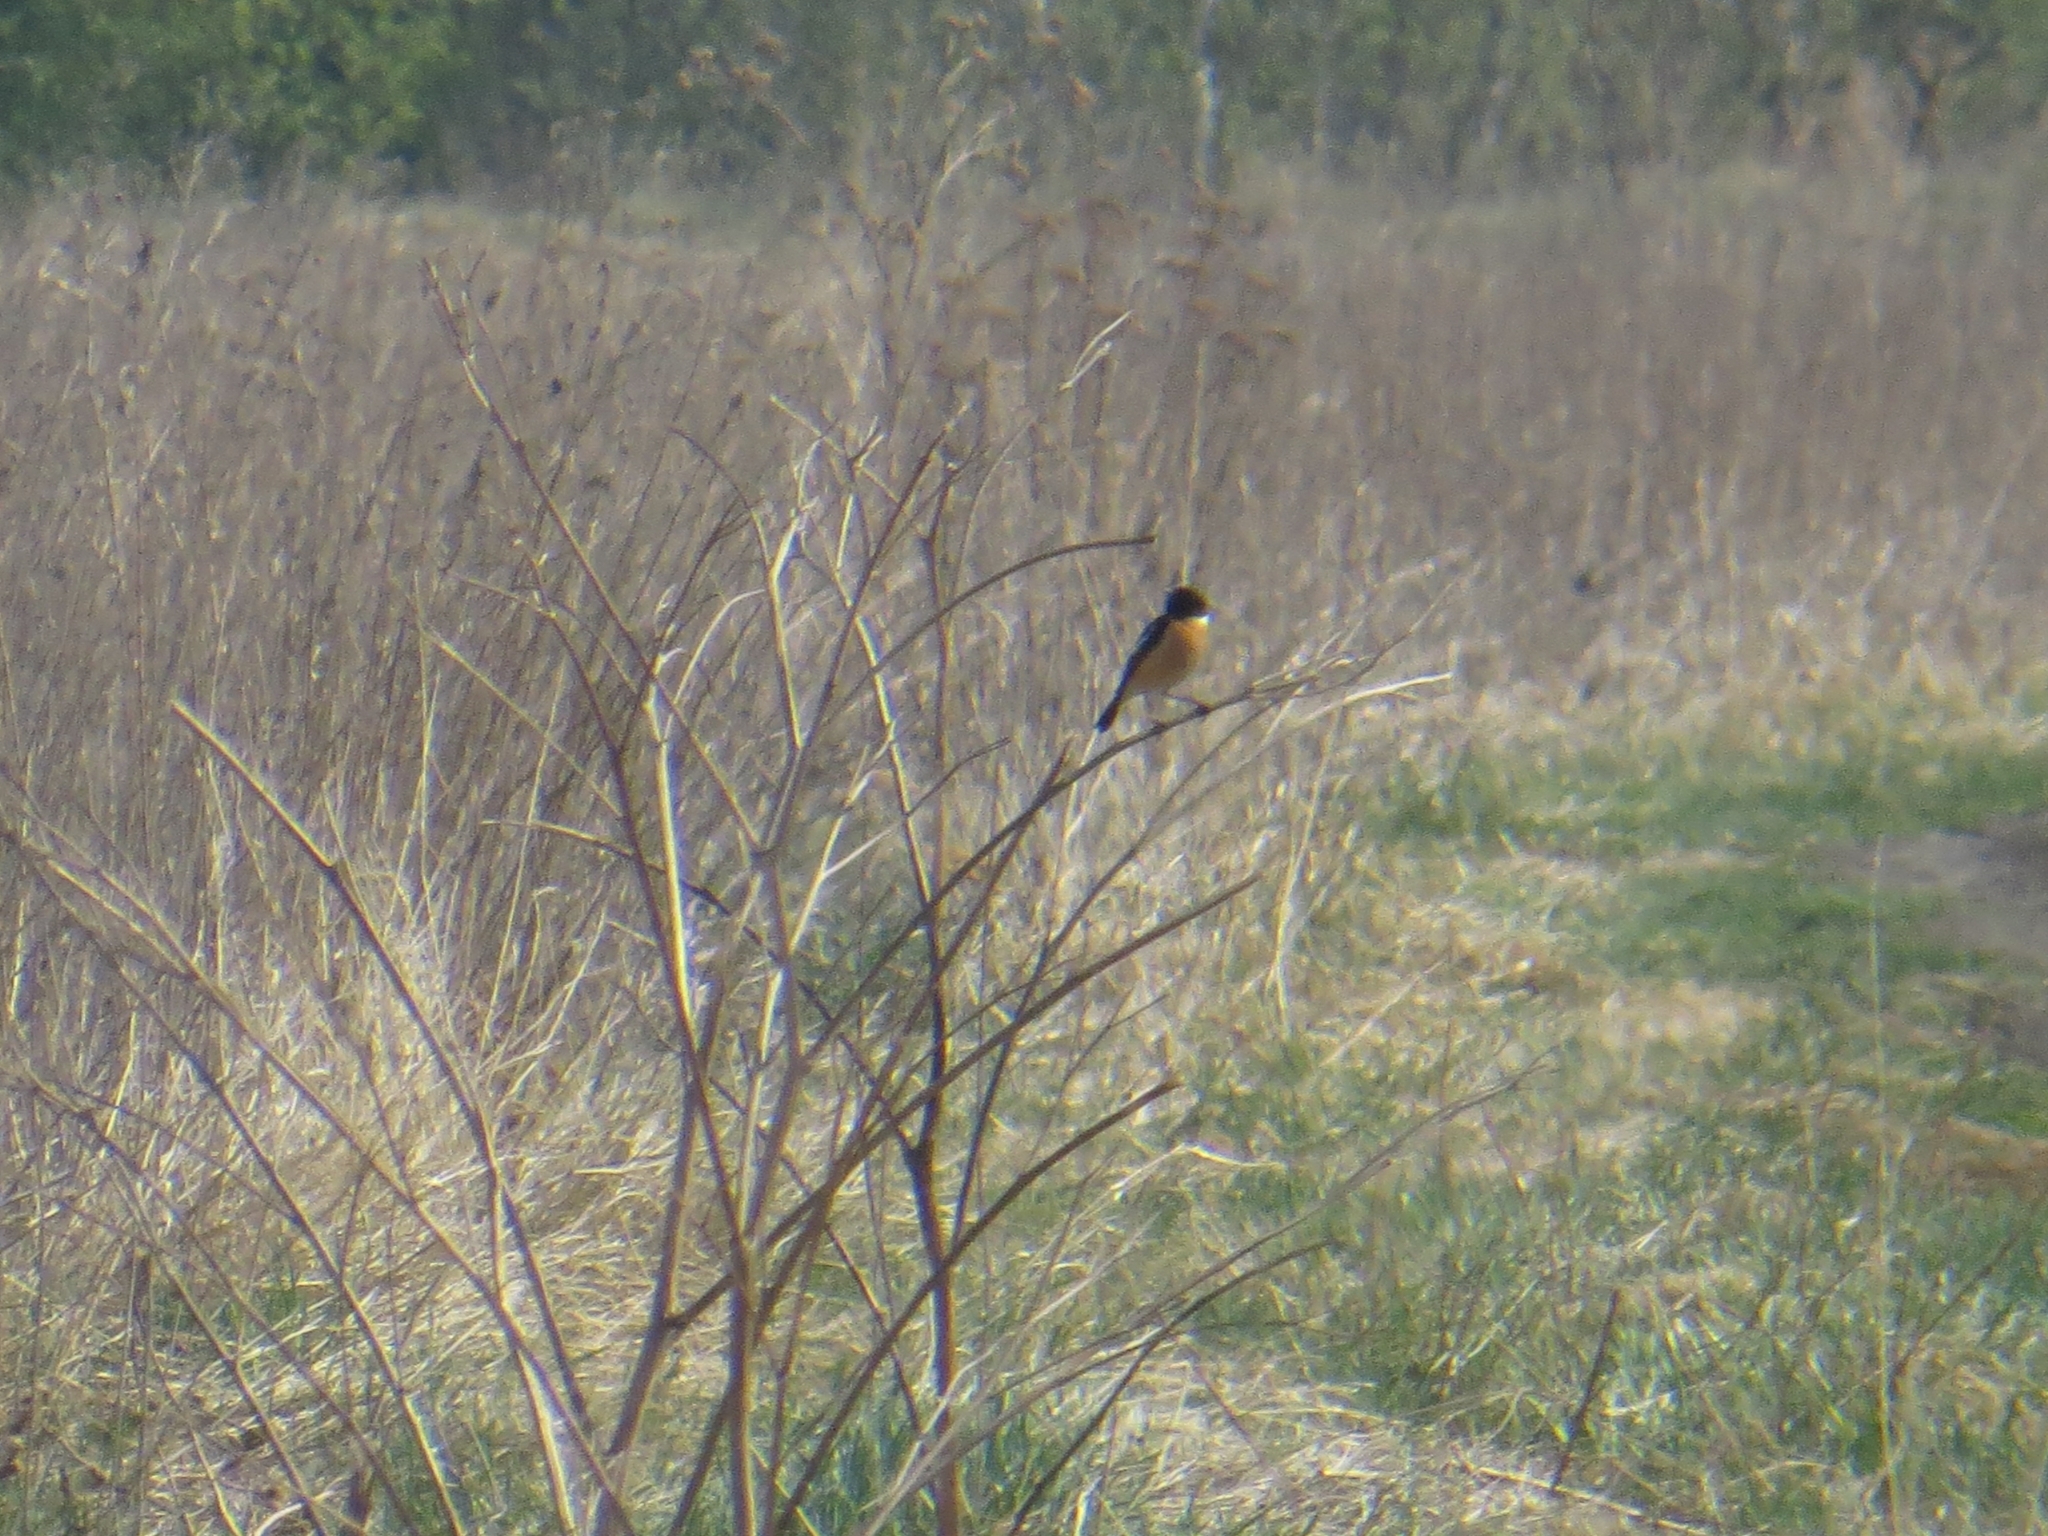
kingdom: Animalia
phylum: Chordata
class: Aves
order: Passeriformes
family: Muscicapidae
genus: Saxicola
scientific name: Saxicola maurus
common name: Siberian stonechat
